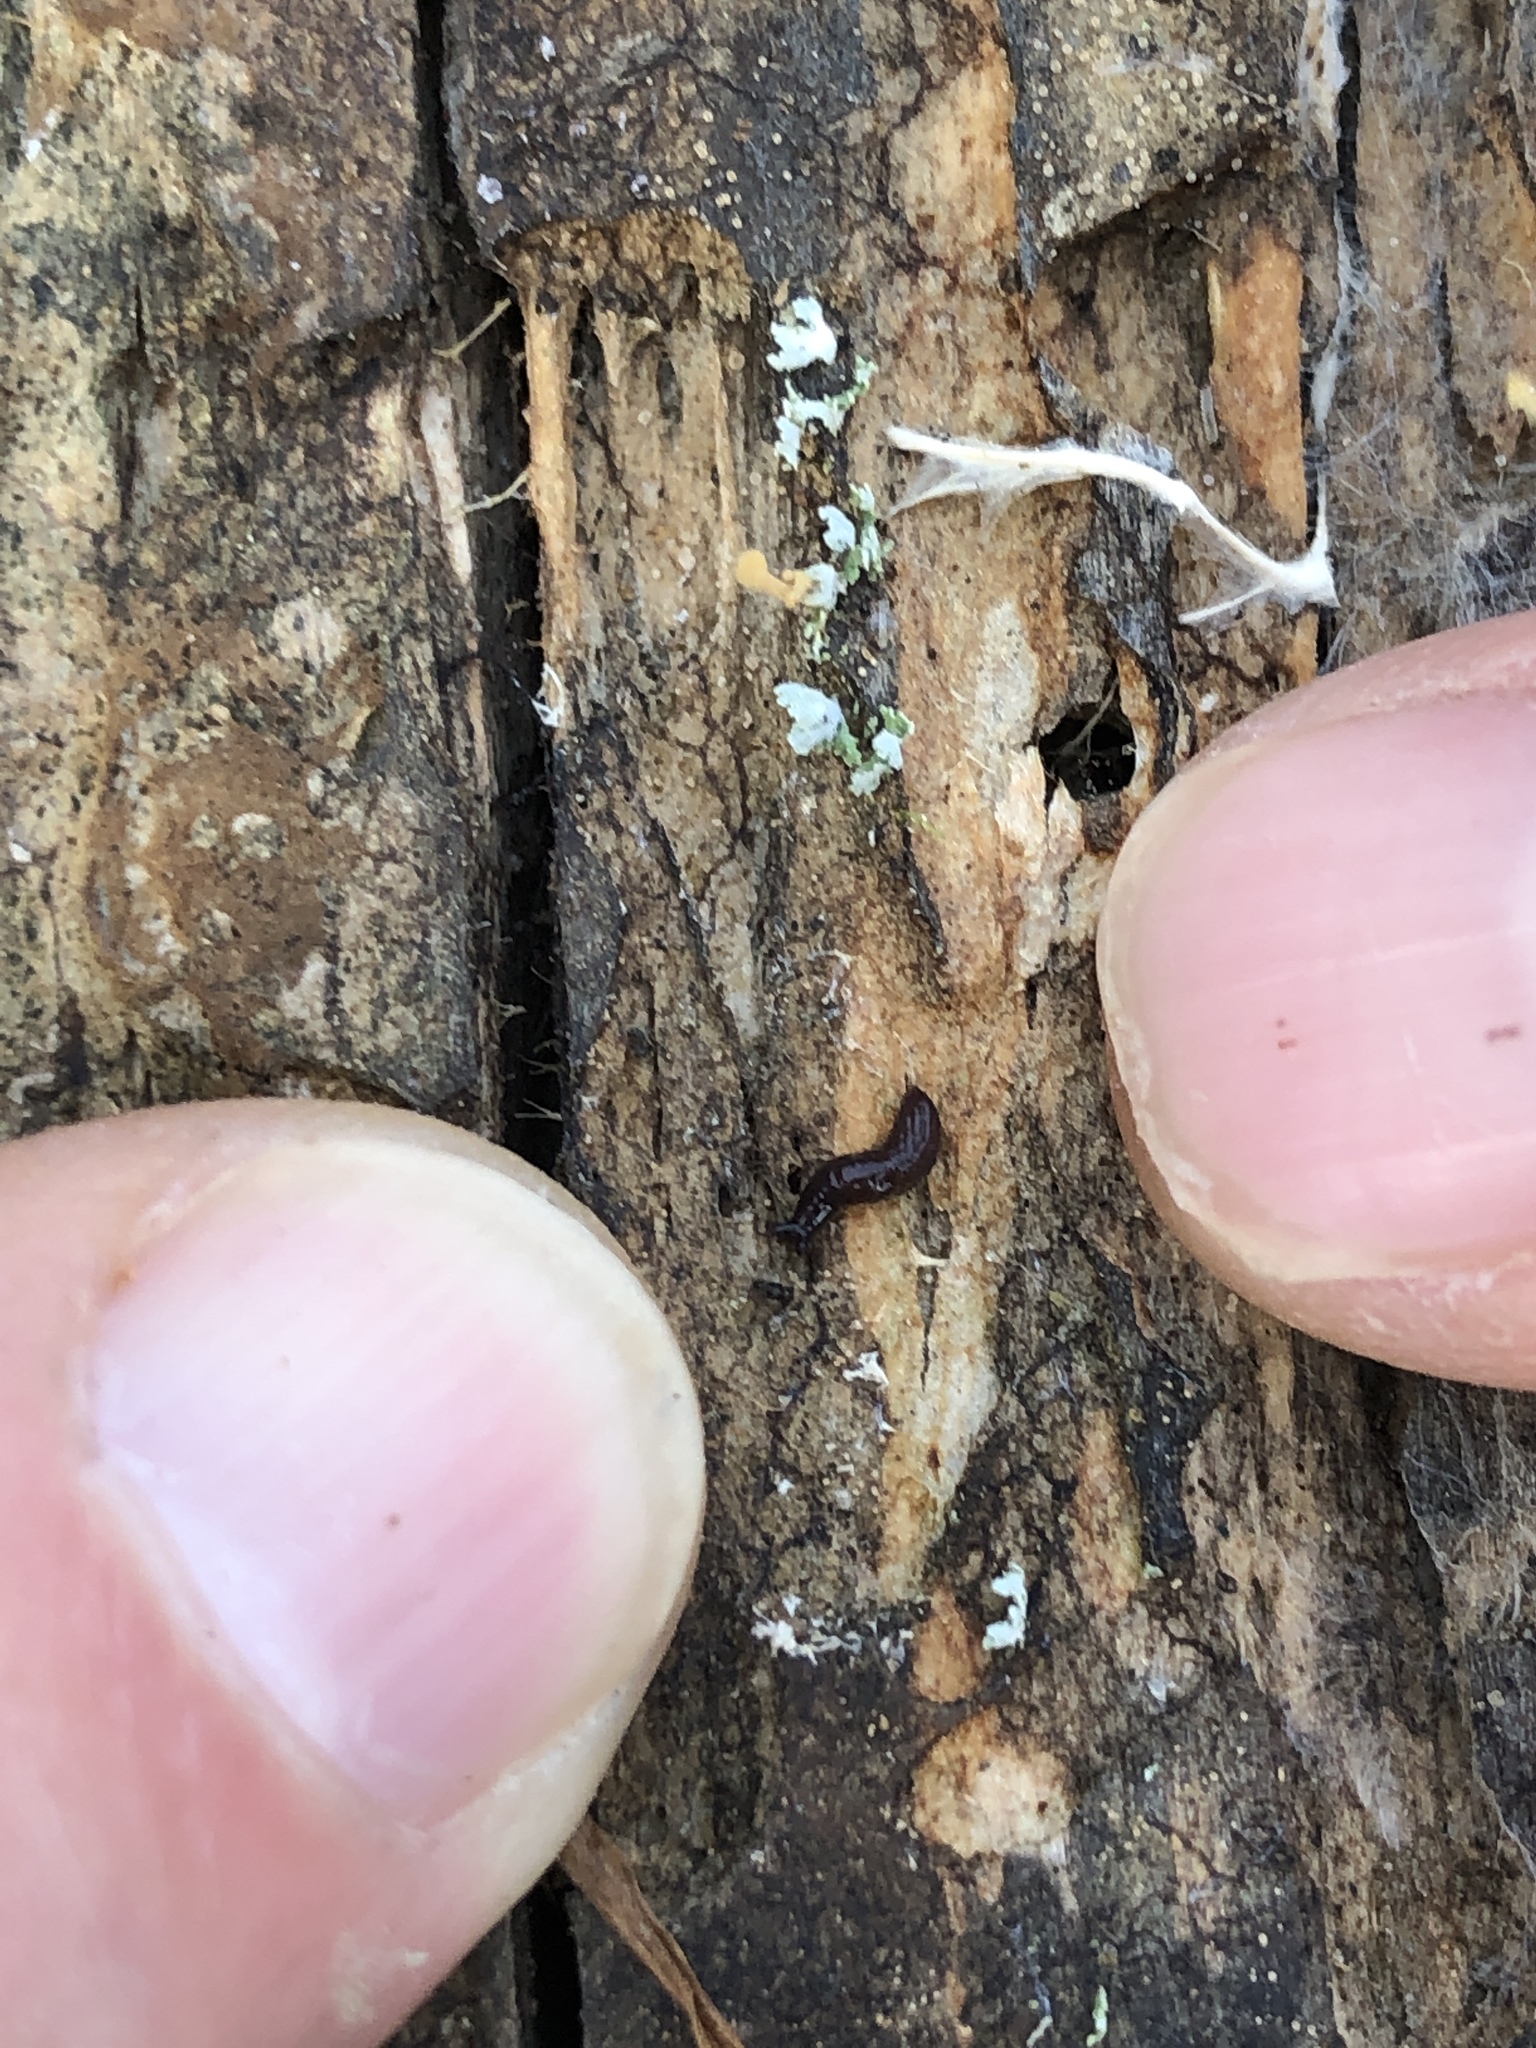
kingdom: Animalia
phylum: Mollusca
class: Gastropoda
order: Stylommatophora
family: Agriolimacidae
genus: Deroceras
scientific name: Deroceras laeve
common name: Marsh slug
